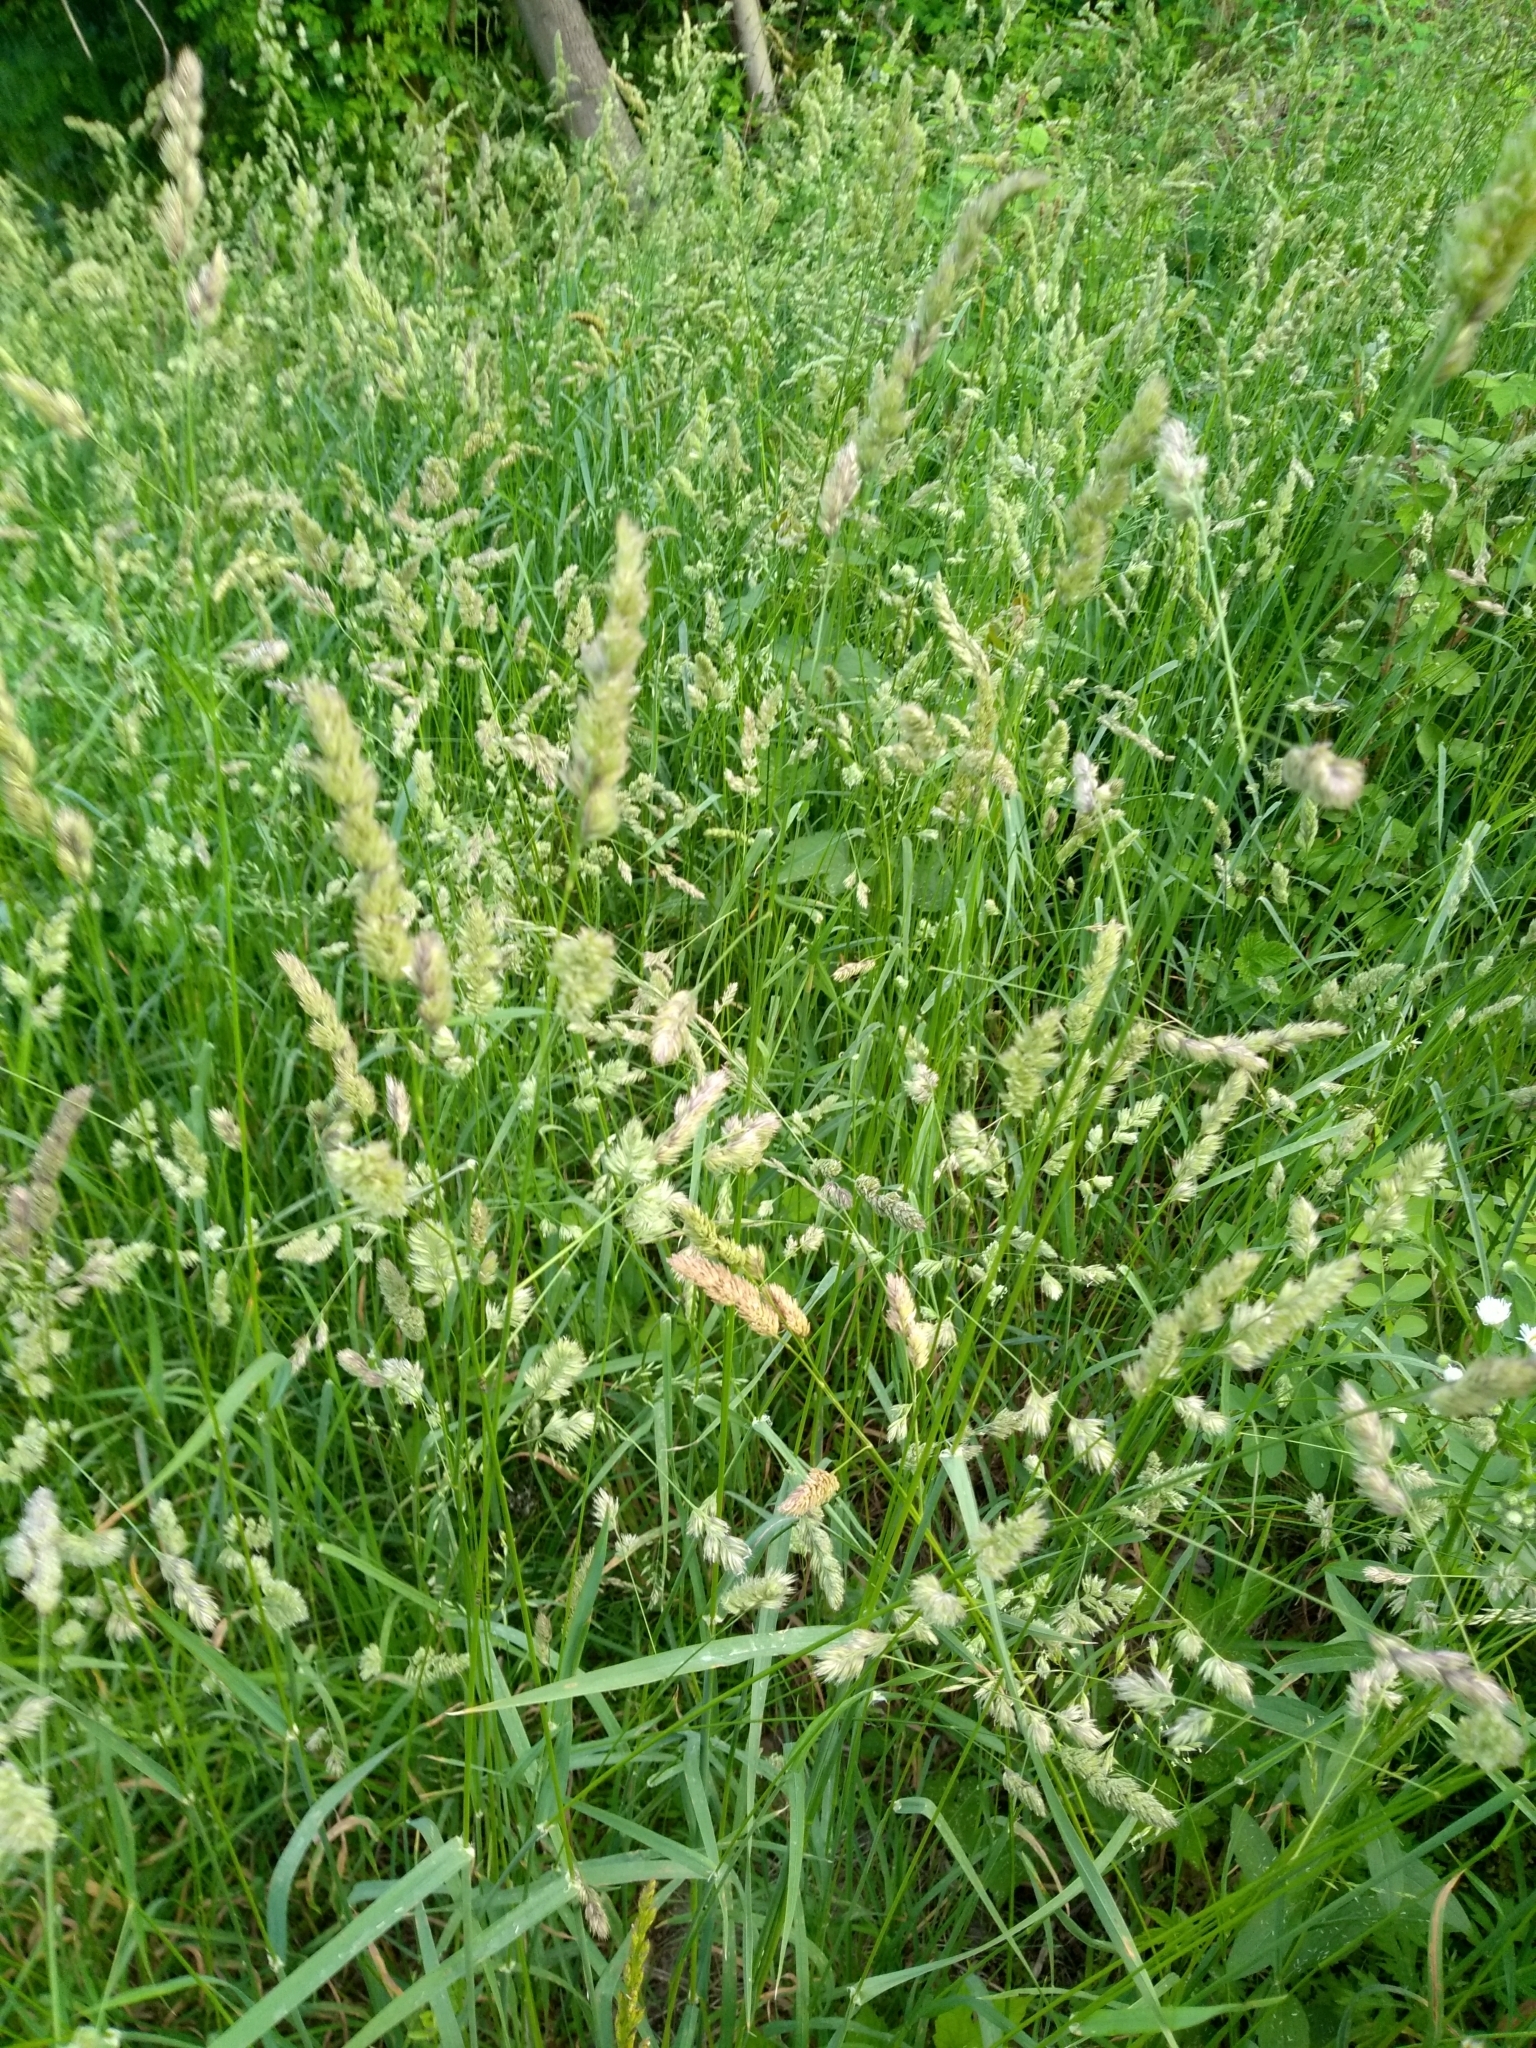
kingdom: Plantae
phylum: Tracheophyta
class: Liliopsida
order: Poales
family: Poaceae
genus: Dactylis
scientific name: Dactylis glomerata
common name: Orchardgrass
